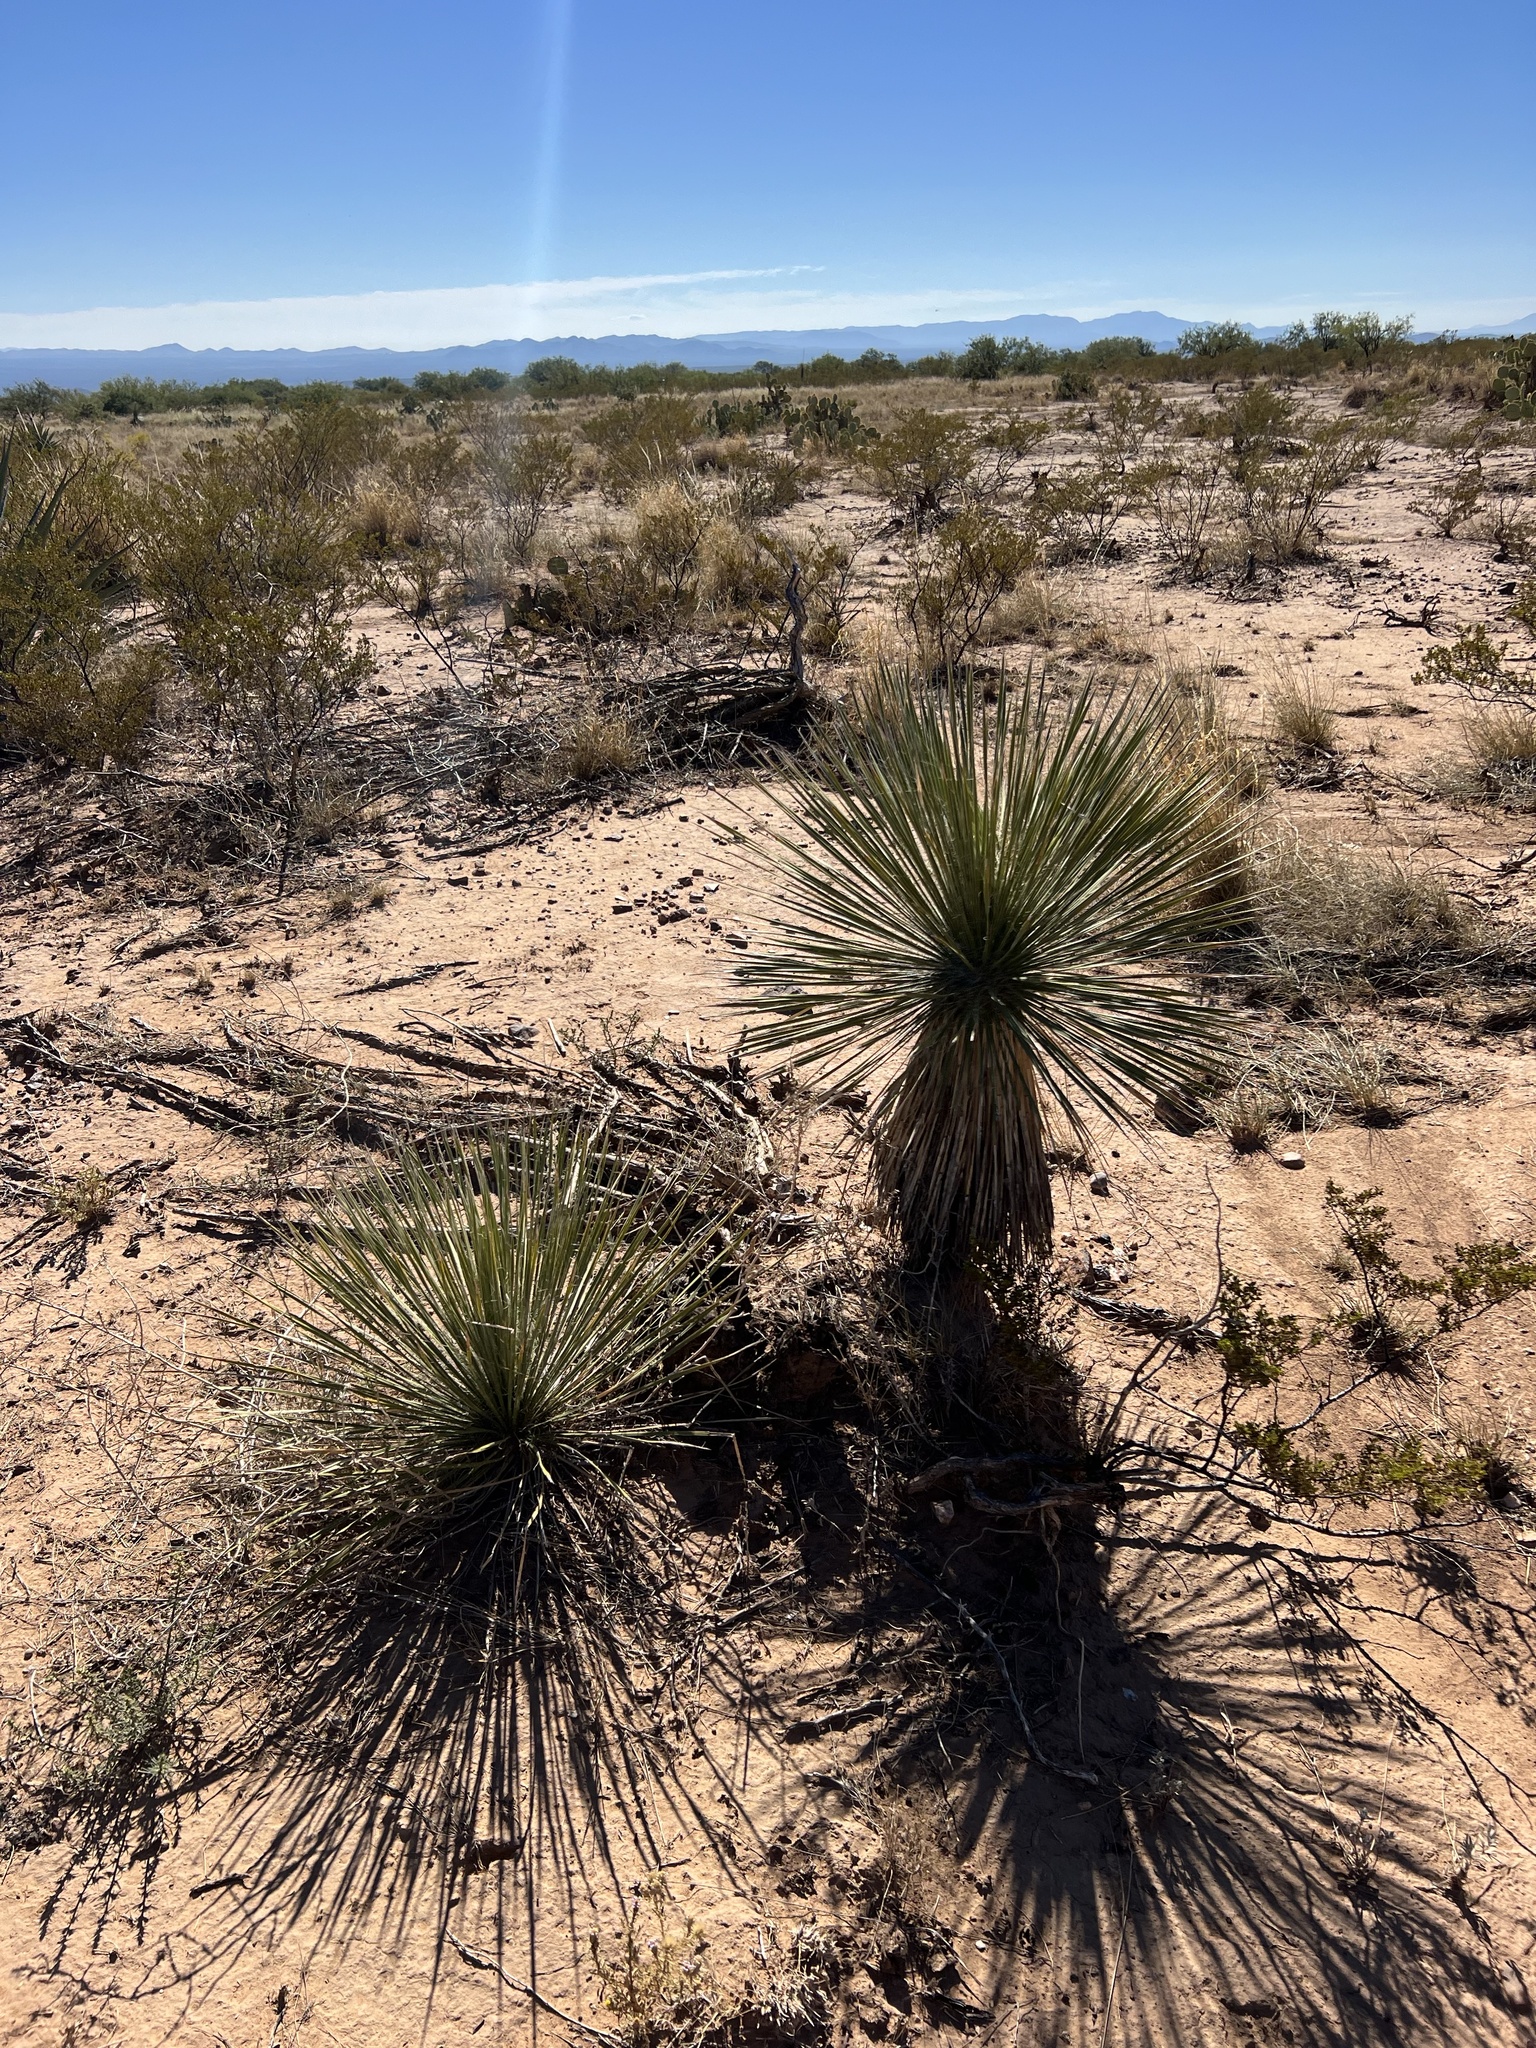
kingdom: Plantae
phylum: Tracheophyta
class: Liliopsida
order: Asparagales
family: Asparagaceae
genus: Yucca
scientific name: Yucca elata
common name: Palmella
